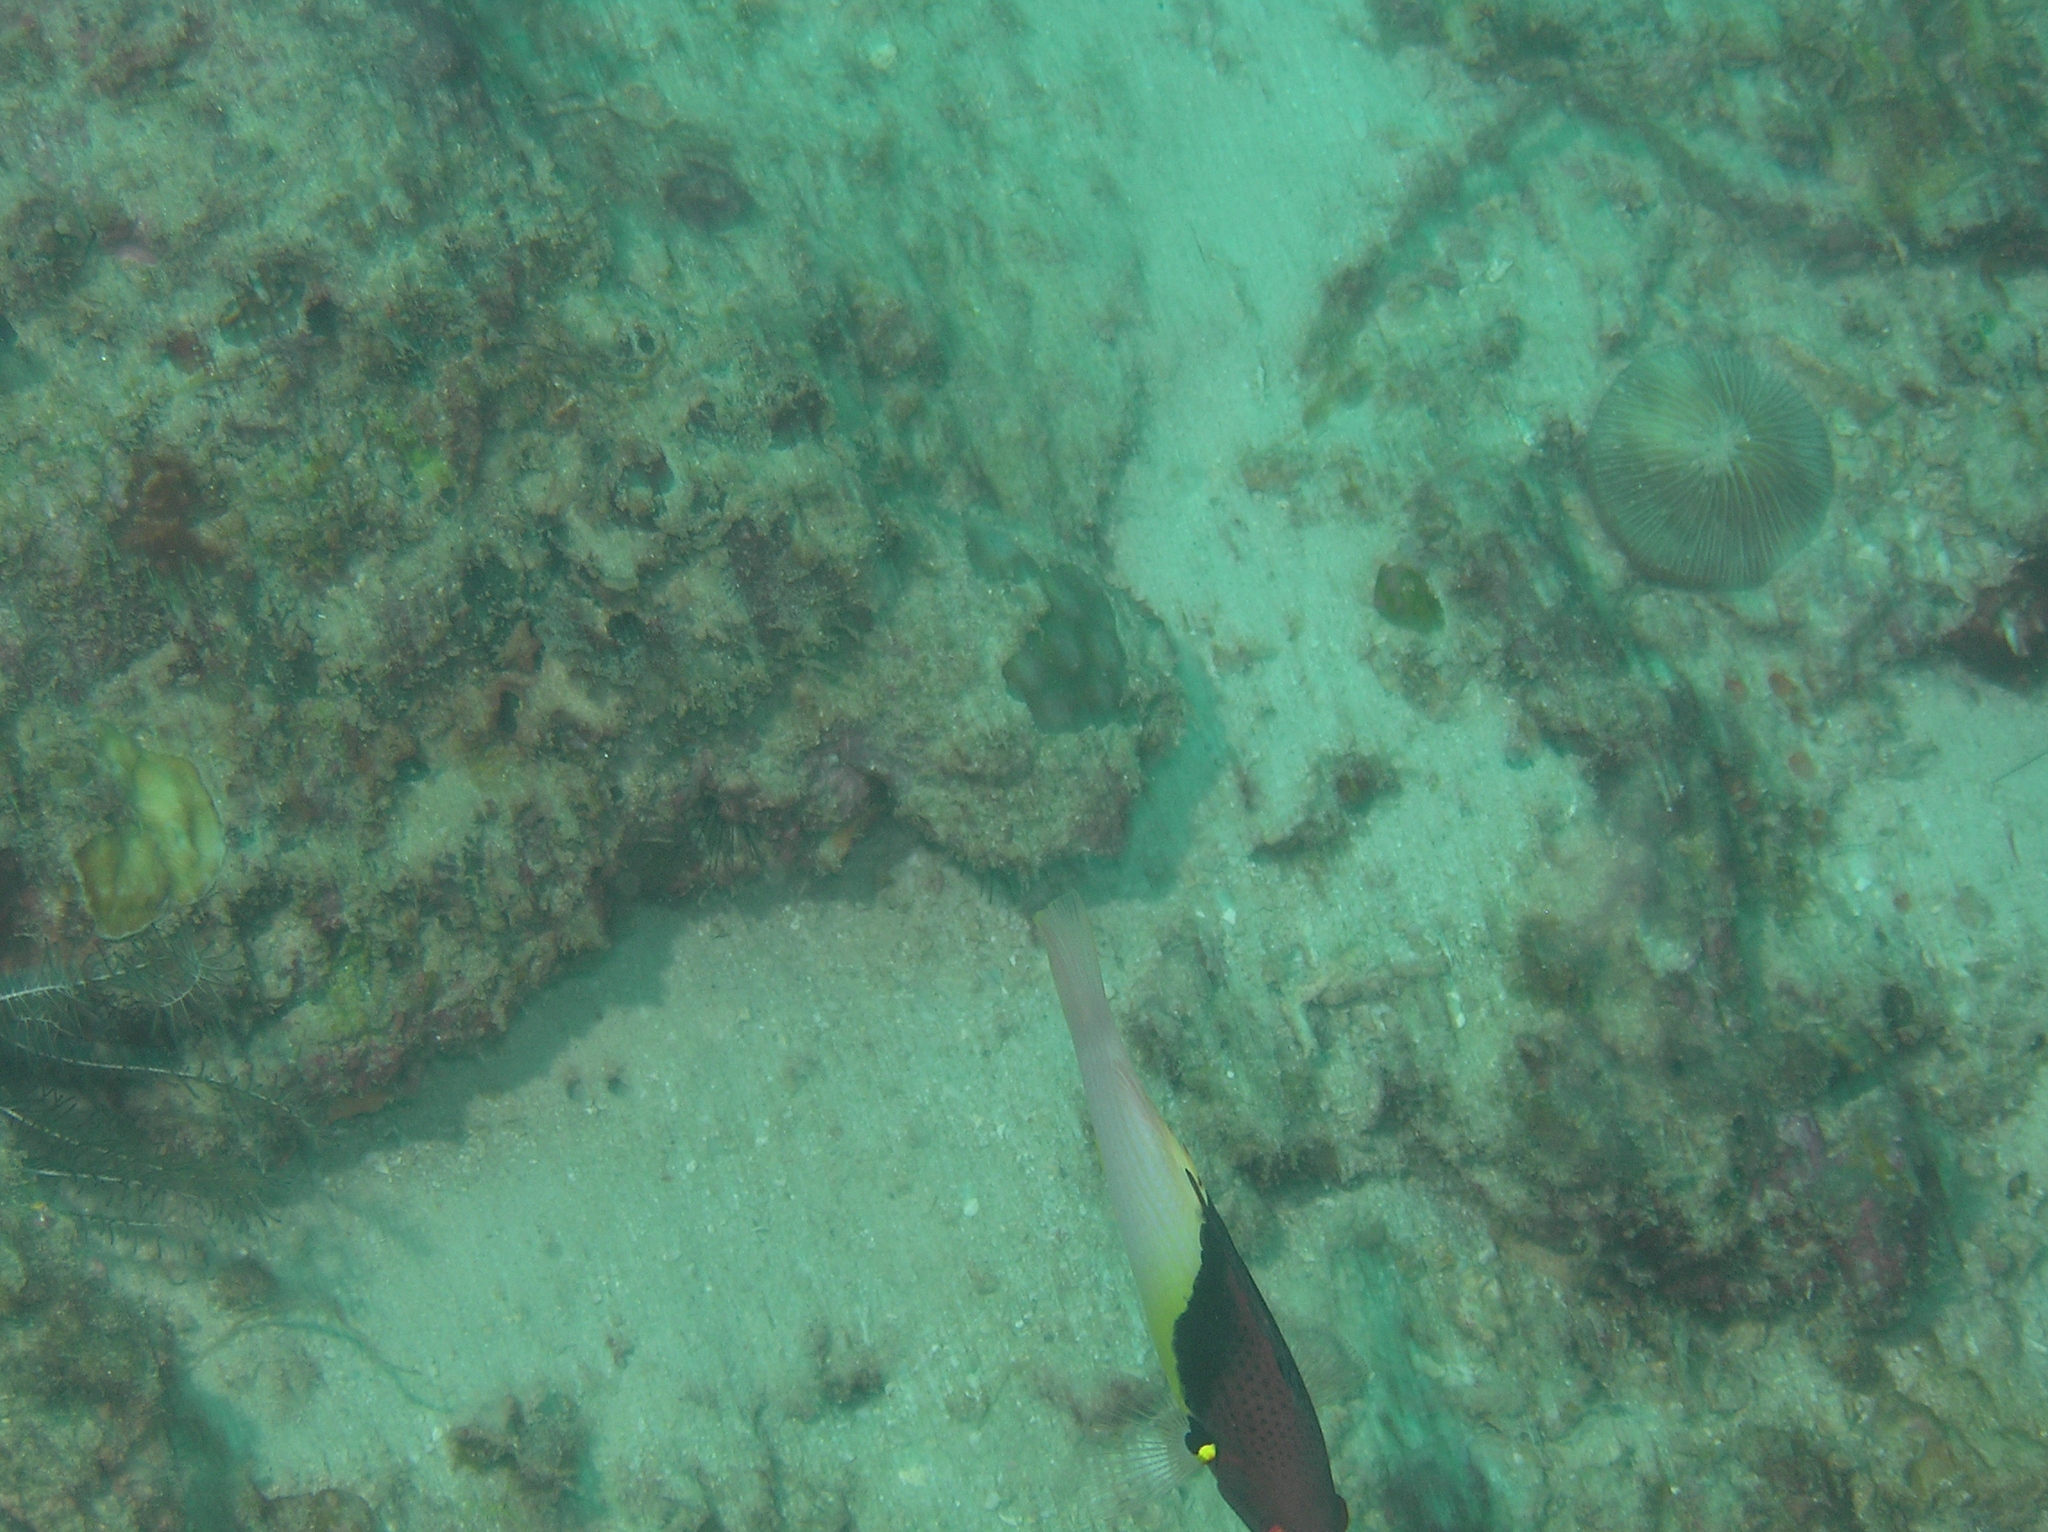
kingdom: Animalia
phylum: Chordata
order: Perciformes
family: Labridae
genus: Bodianus
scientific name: Bodianus mesothorax
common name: Coral hogfish
